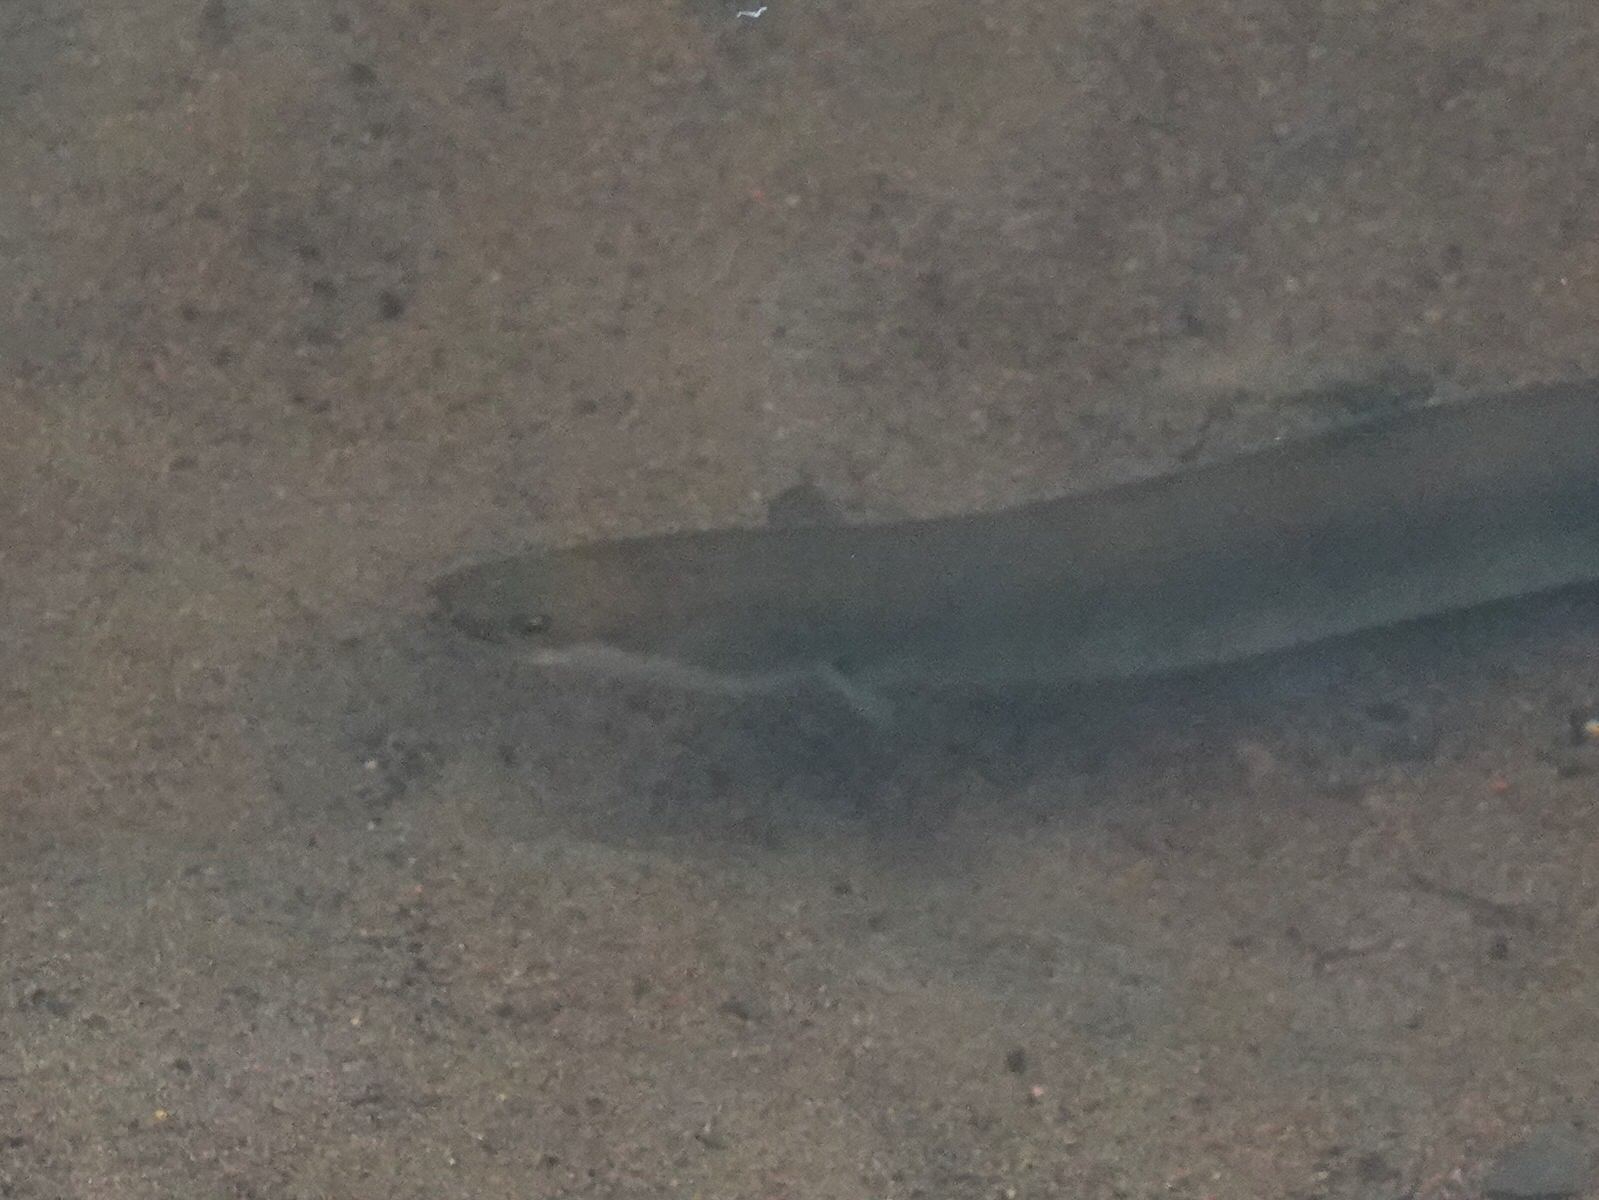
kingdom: Animalia
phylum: Chordata
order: Anguilliformes
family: Anguillidae
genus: Anguilla
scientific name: Anguilla australis
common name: Shortfin eel
